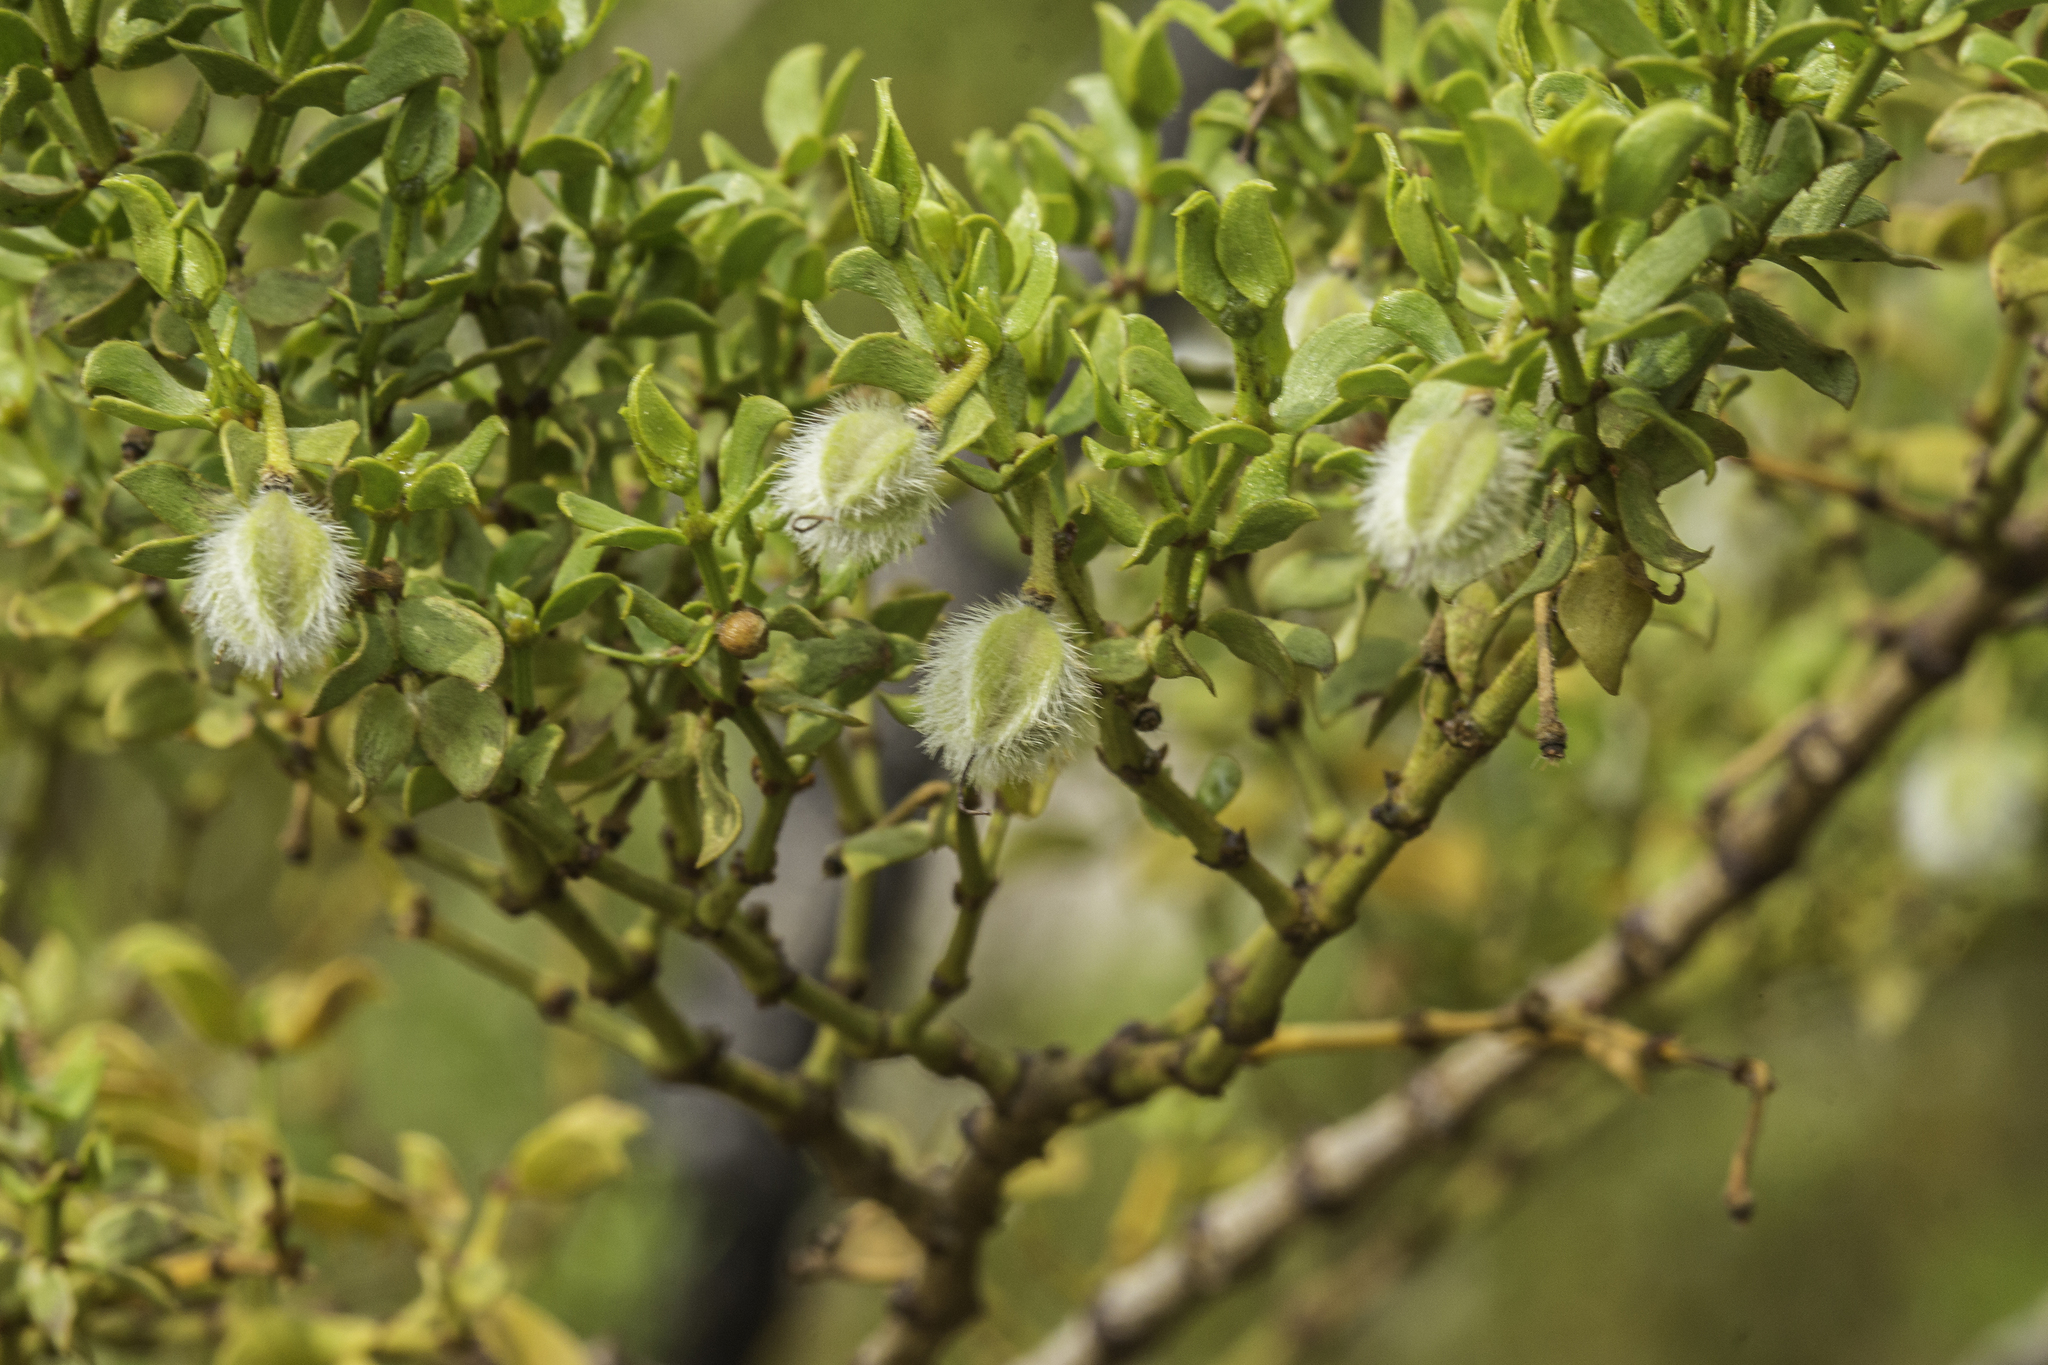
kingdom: Plantae
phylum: Tracheophyta
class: Magnoliopsida
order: Zygophyllales
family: Zygophyllaceae
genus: Larrea
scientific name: Larrea tridentata
